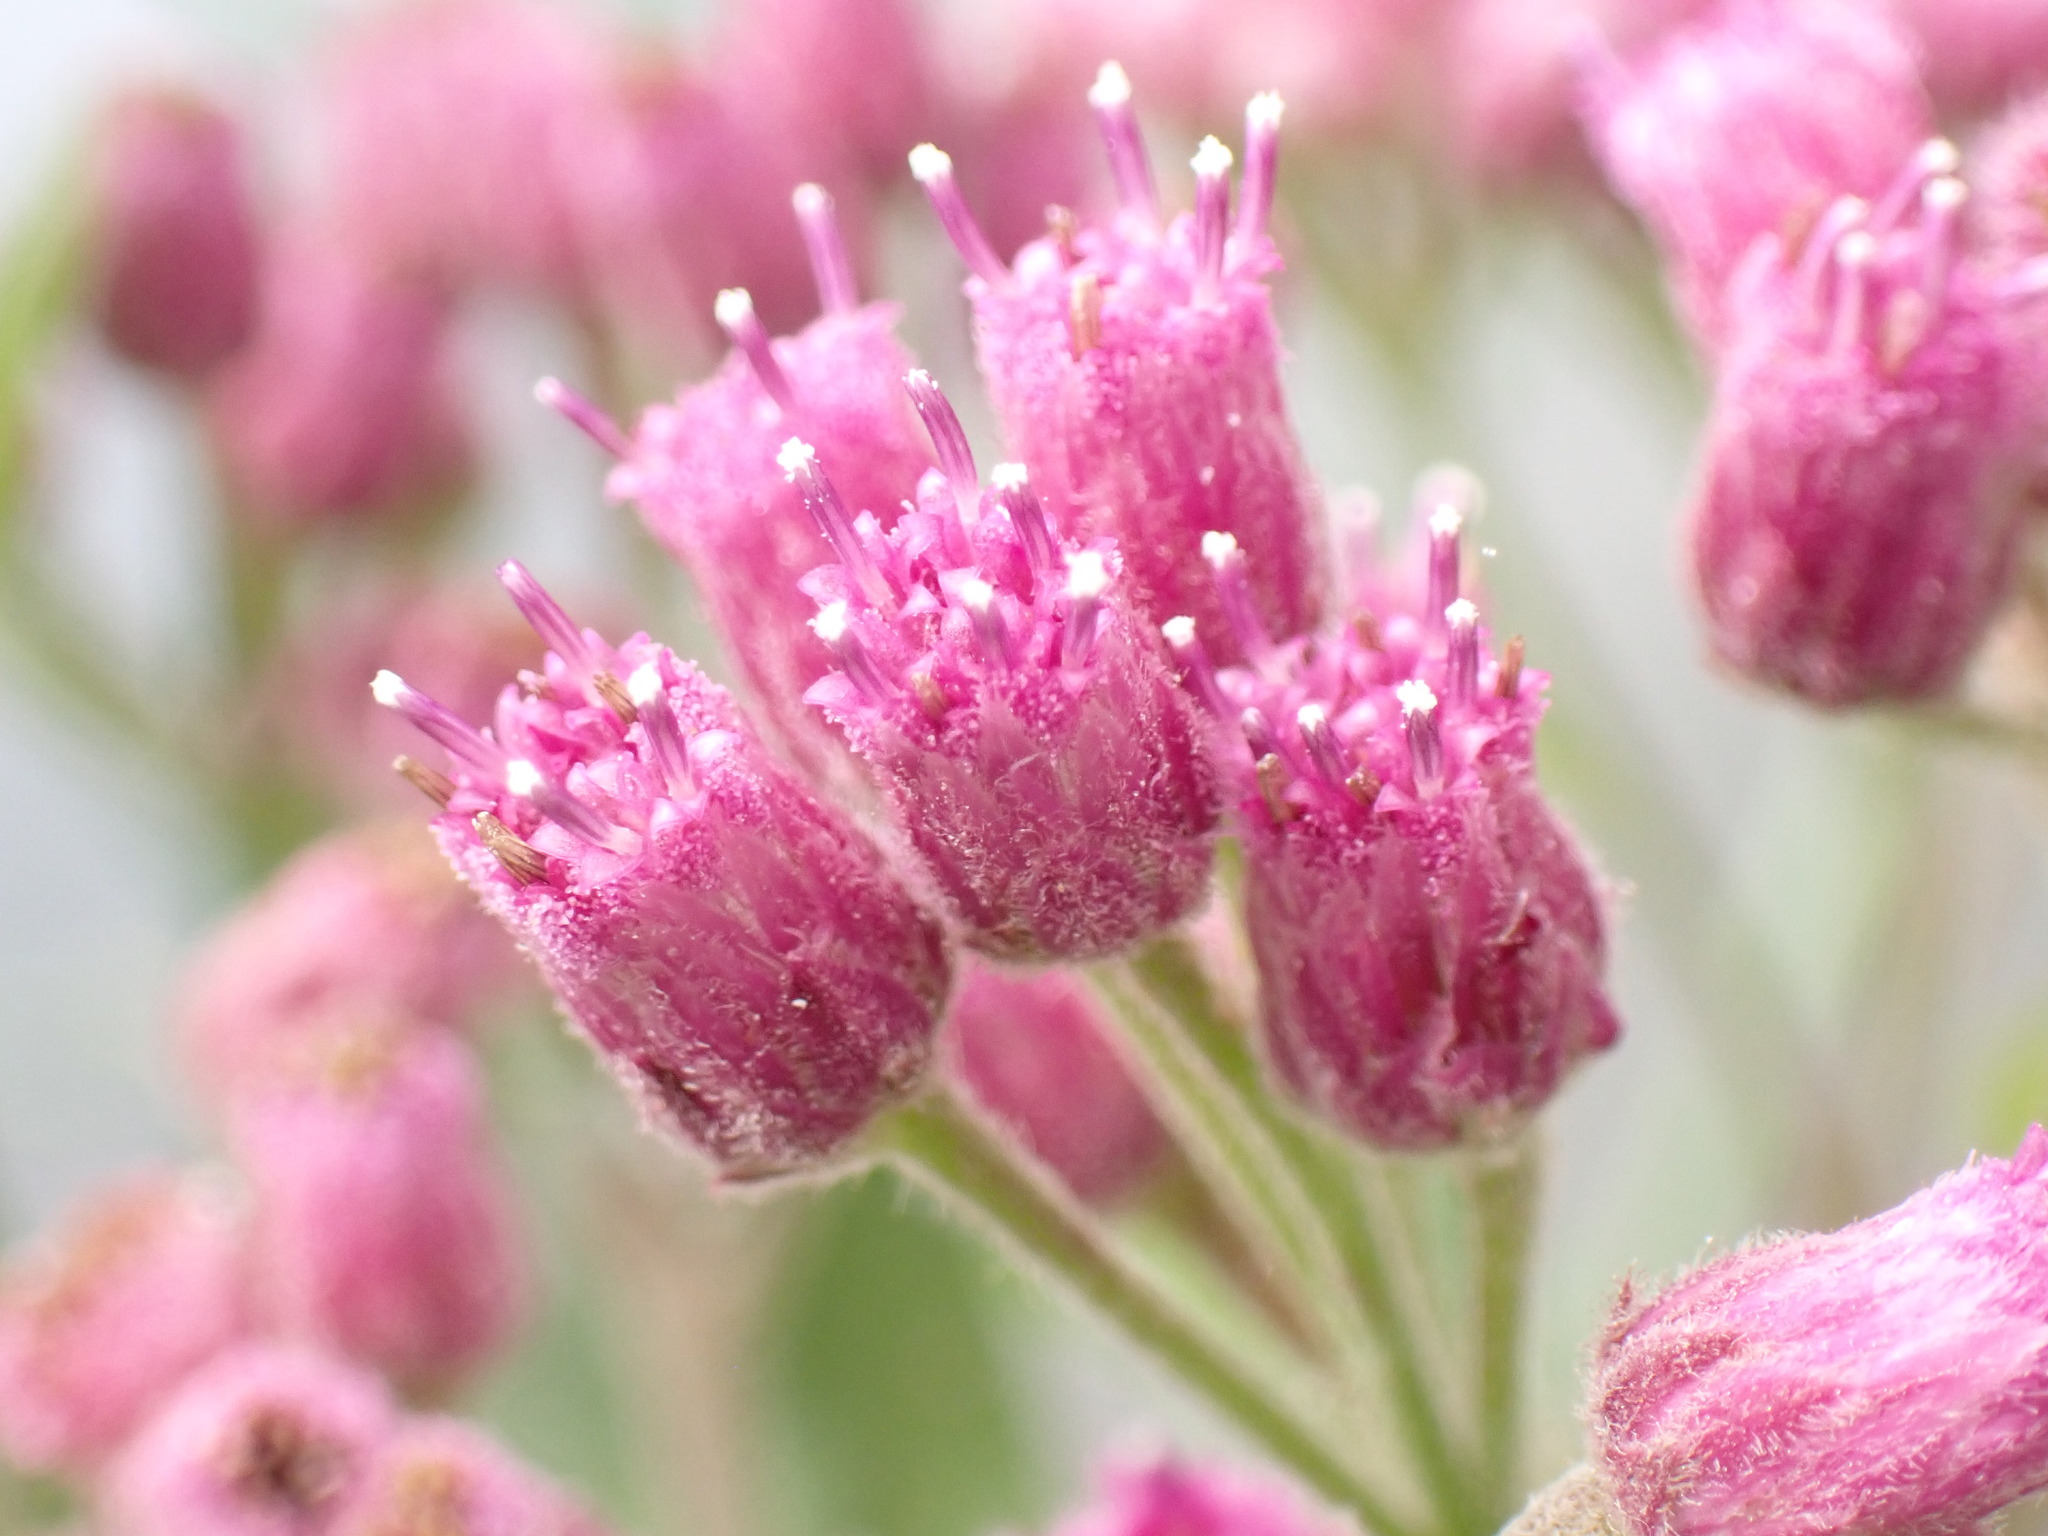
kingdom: Plantae
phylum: Tracheophyta
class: Magnoliopsida
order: Asterales
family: Asteraceae
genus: Pluchea
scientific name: Pluchea odorata
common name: Saltmarsh fleabane
